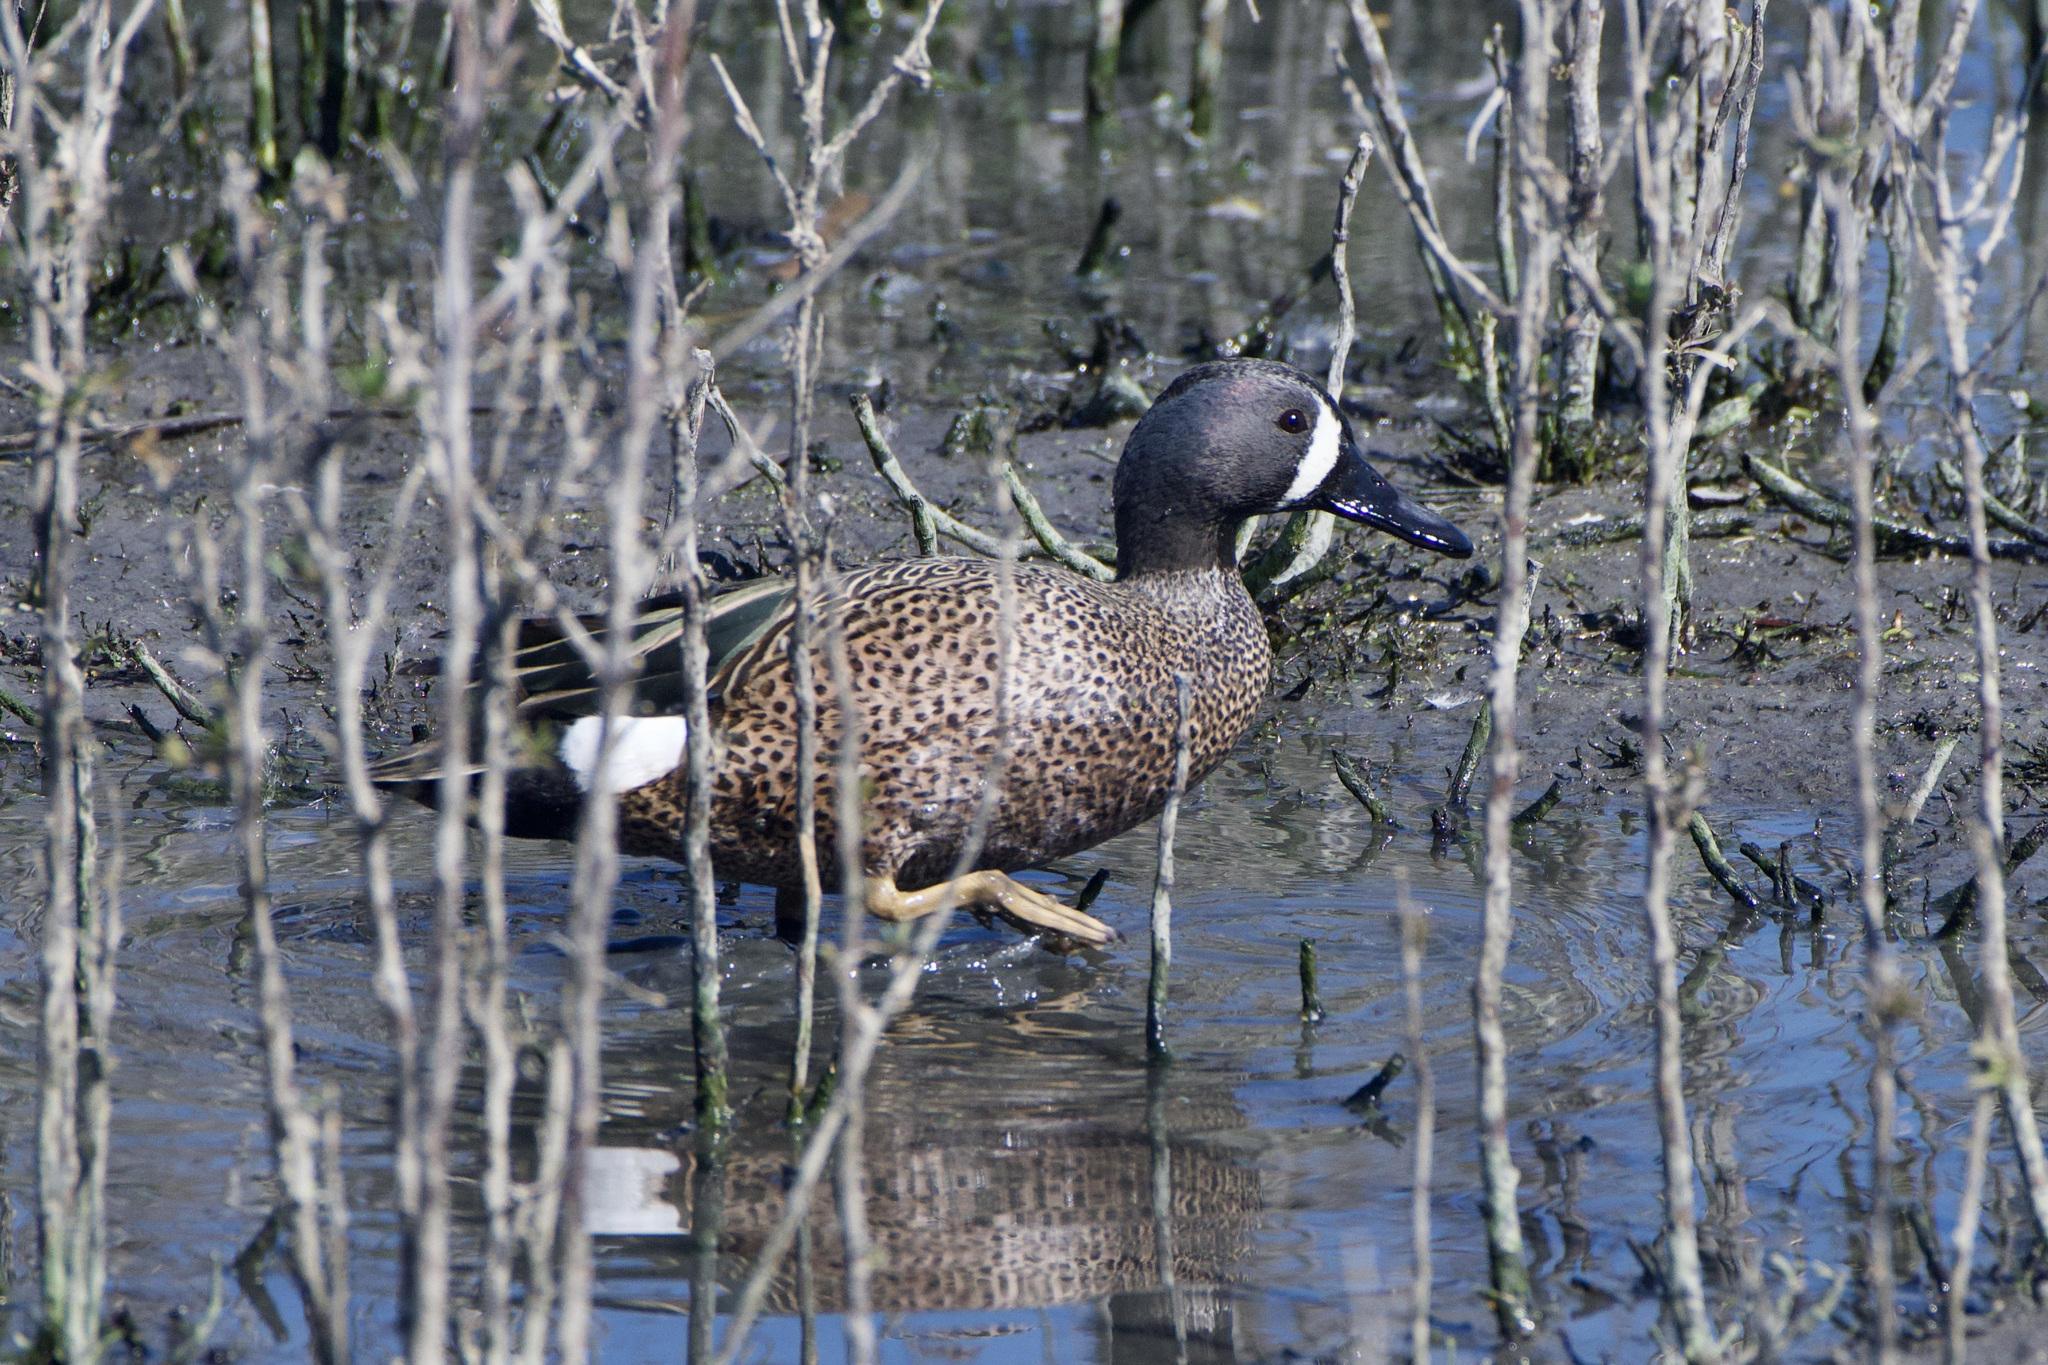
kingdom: Animalia
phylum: Chordata
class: Aves
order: Anseriformes
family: Anatidae
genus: Spatula
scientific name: Spatula discors
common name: Blue-winged teal
